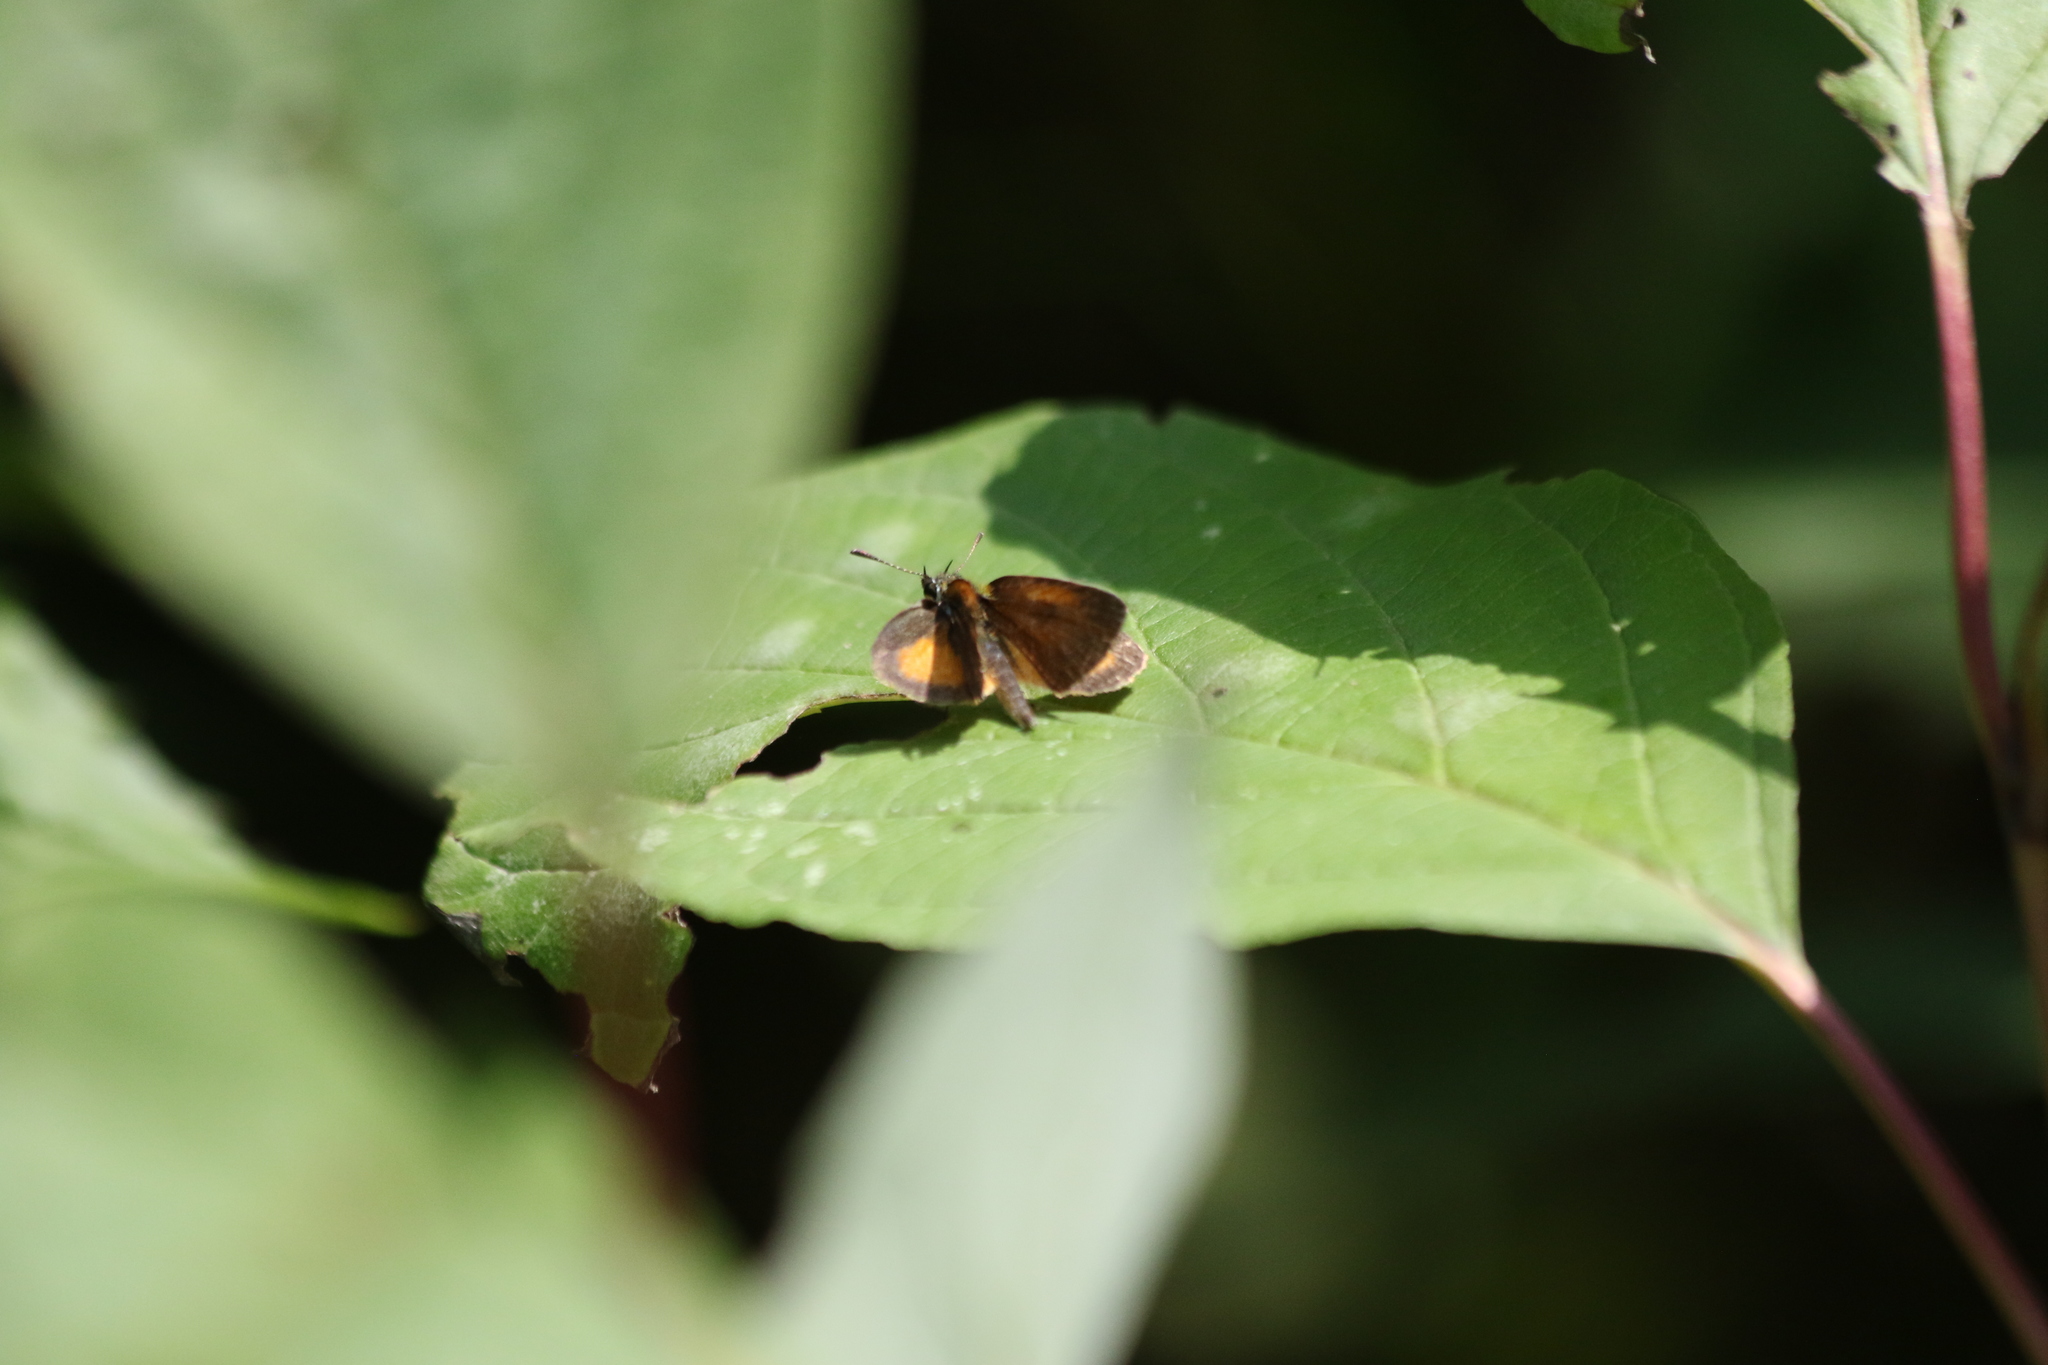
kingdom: Animalia
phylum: Arthropoda
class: Insecta
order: Lepidoptera
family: Hesperiidae
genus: Ancyloxypha
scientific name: Ancyloxypha numitor
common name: Least skipper
